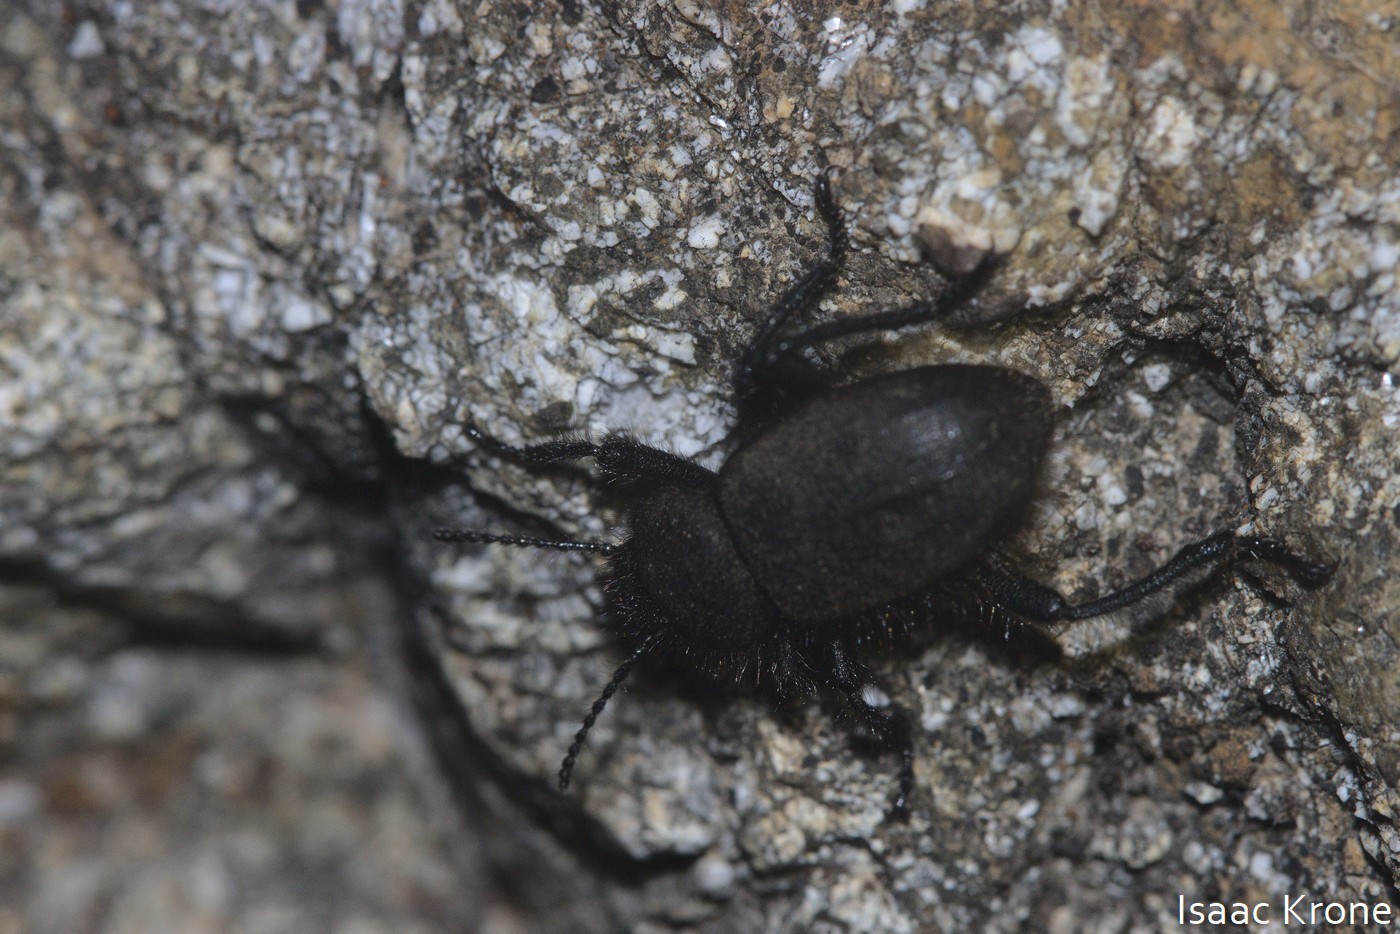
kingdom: Animalia
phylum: Arthropoda
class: Insecta
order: Coleoptera
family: Tenebrionidae
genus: Eleodes
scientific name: Eleodes osculans
